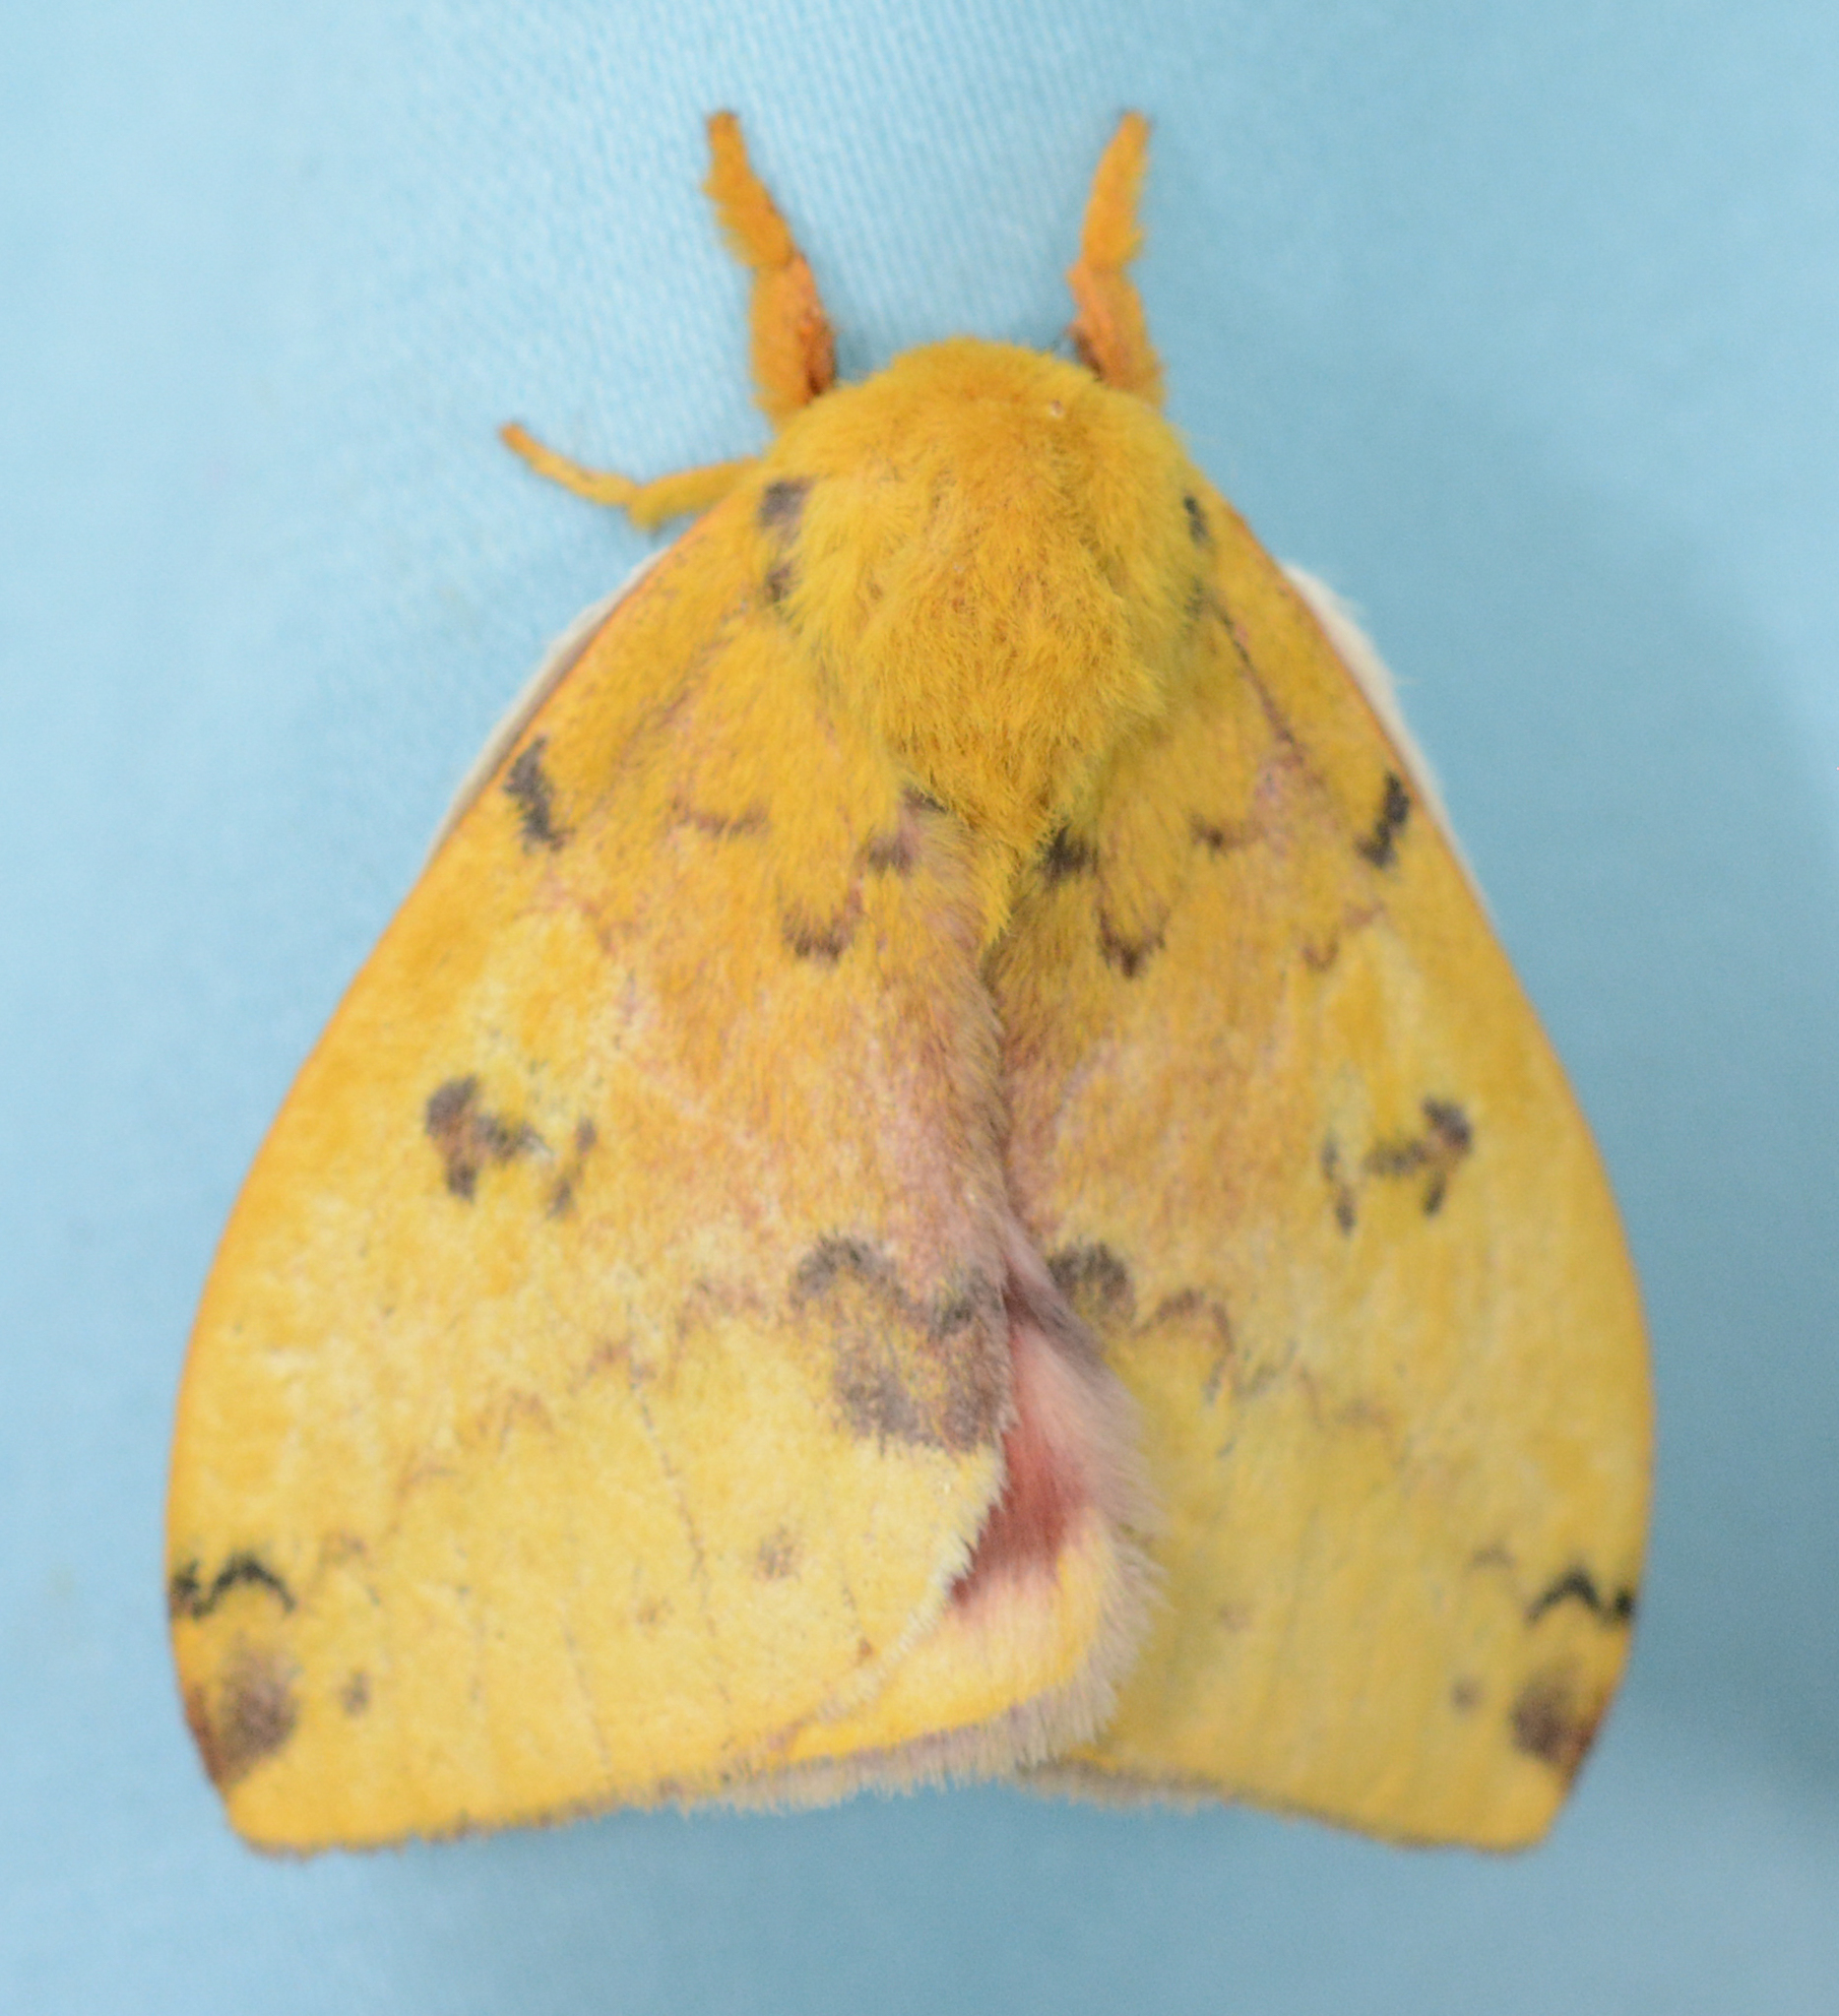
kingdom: Animalia
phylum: Arthropoda
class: Insecta
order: Lepidoptera
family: Saturniidae
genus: Automeris
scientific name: Automeris io
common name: Io moth
